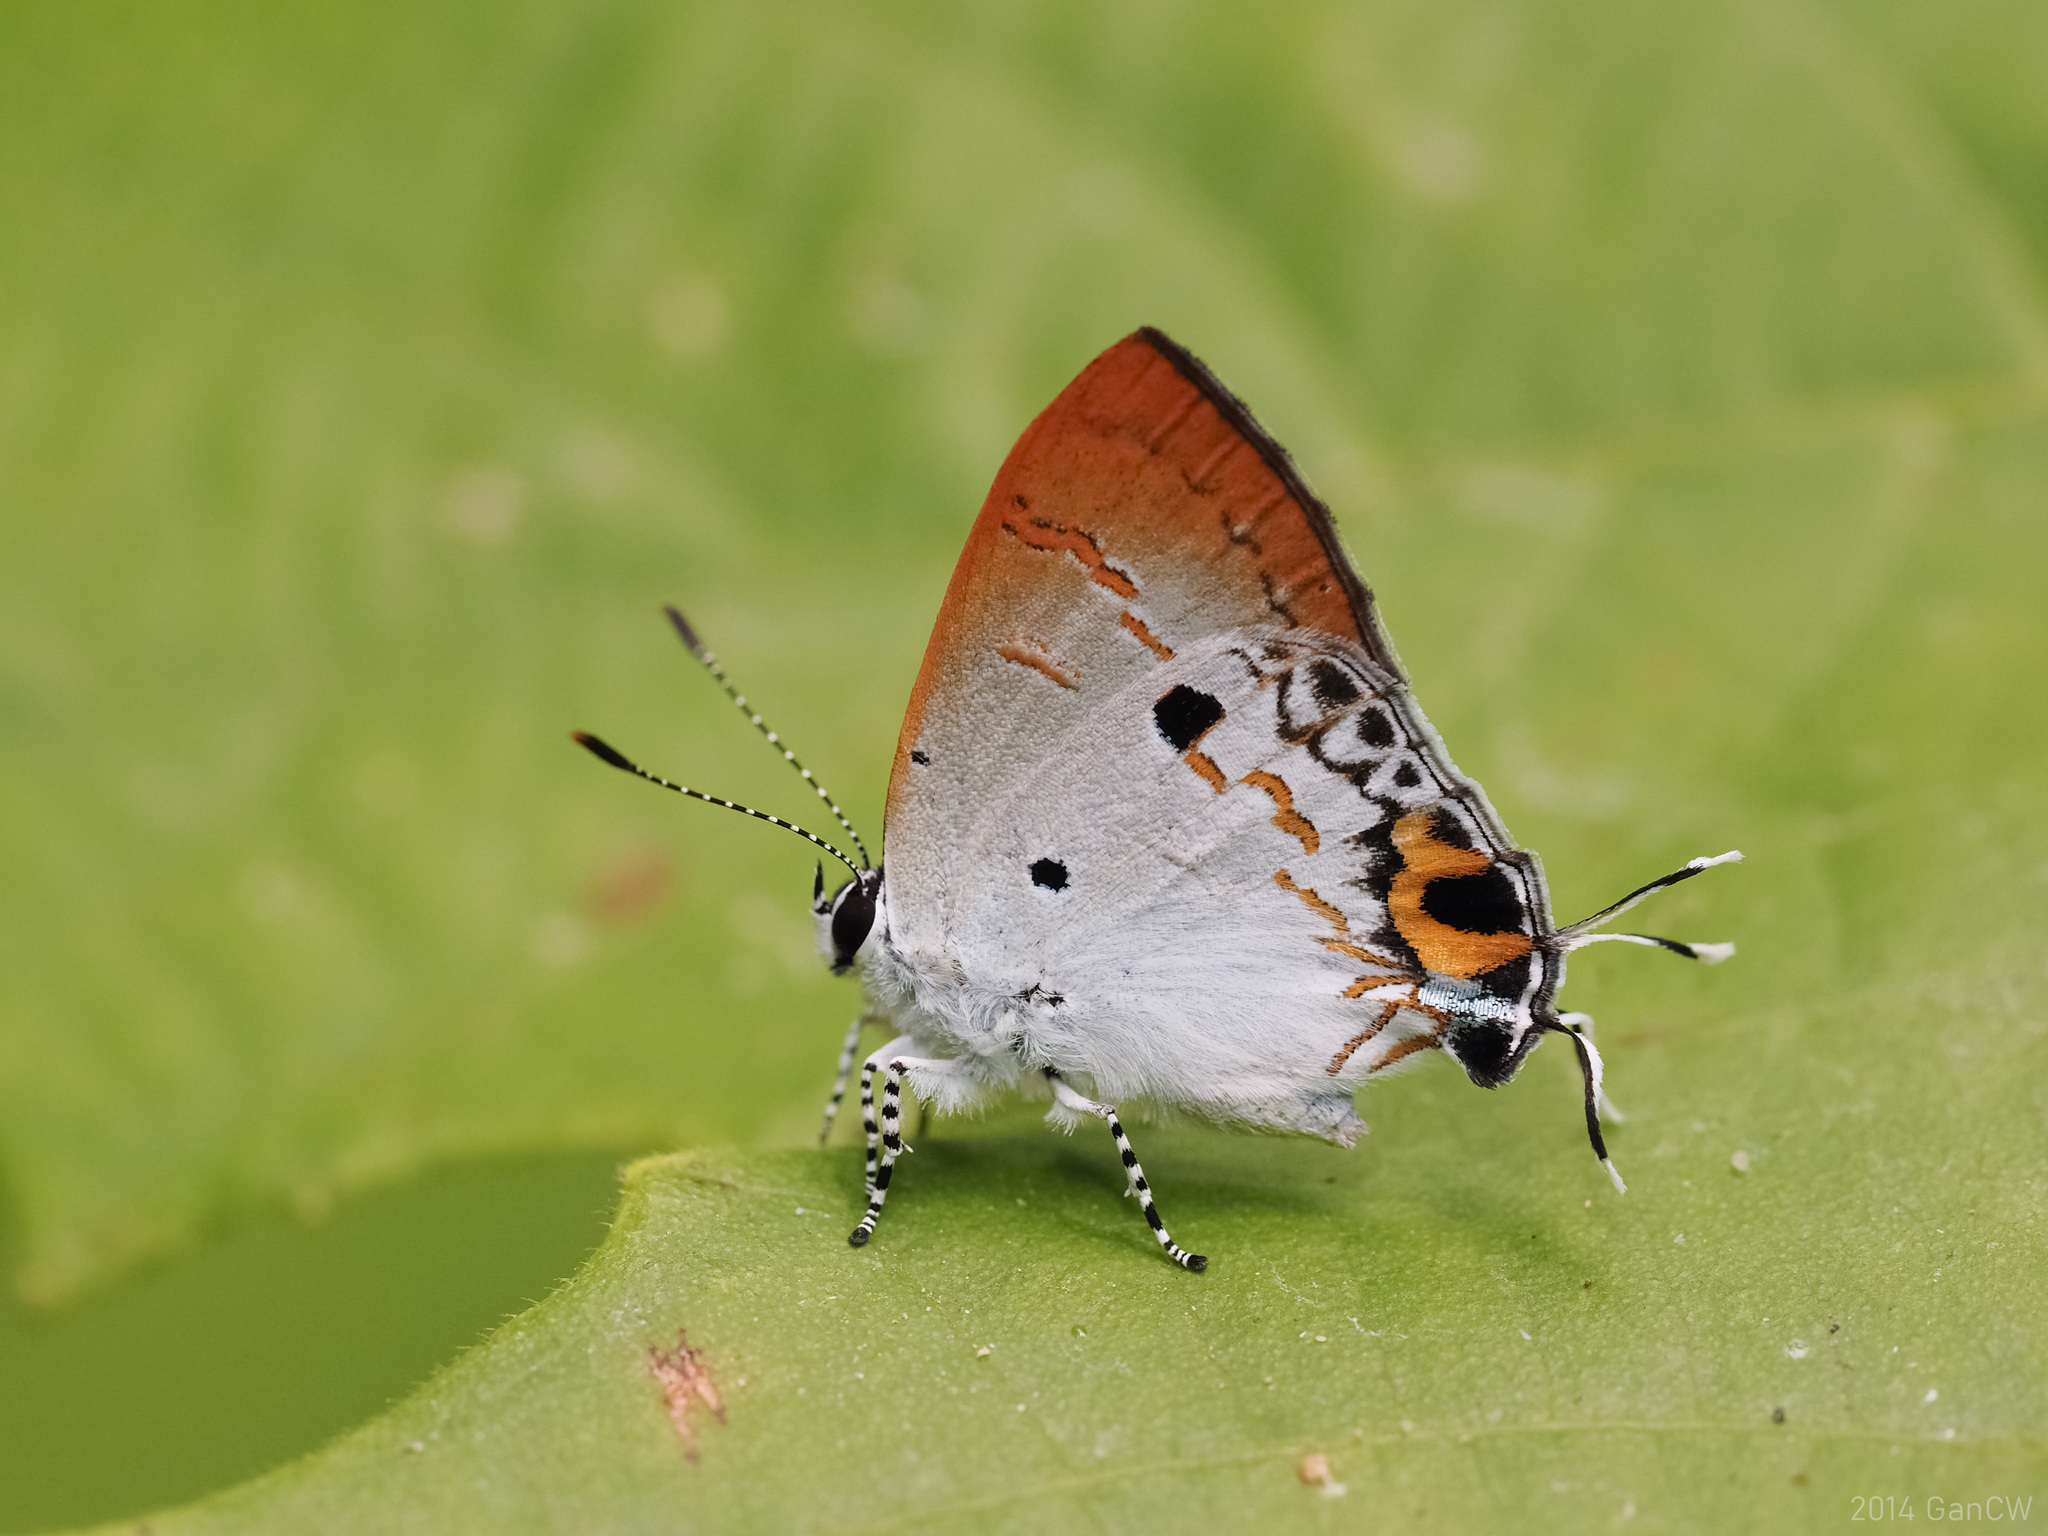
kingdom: Animalia
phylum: Arthropoda
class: Insecta
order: Lepidoptera
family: Lycaenidae
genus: Chliaria
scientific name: Chliaria othona
